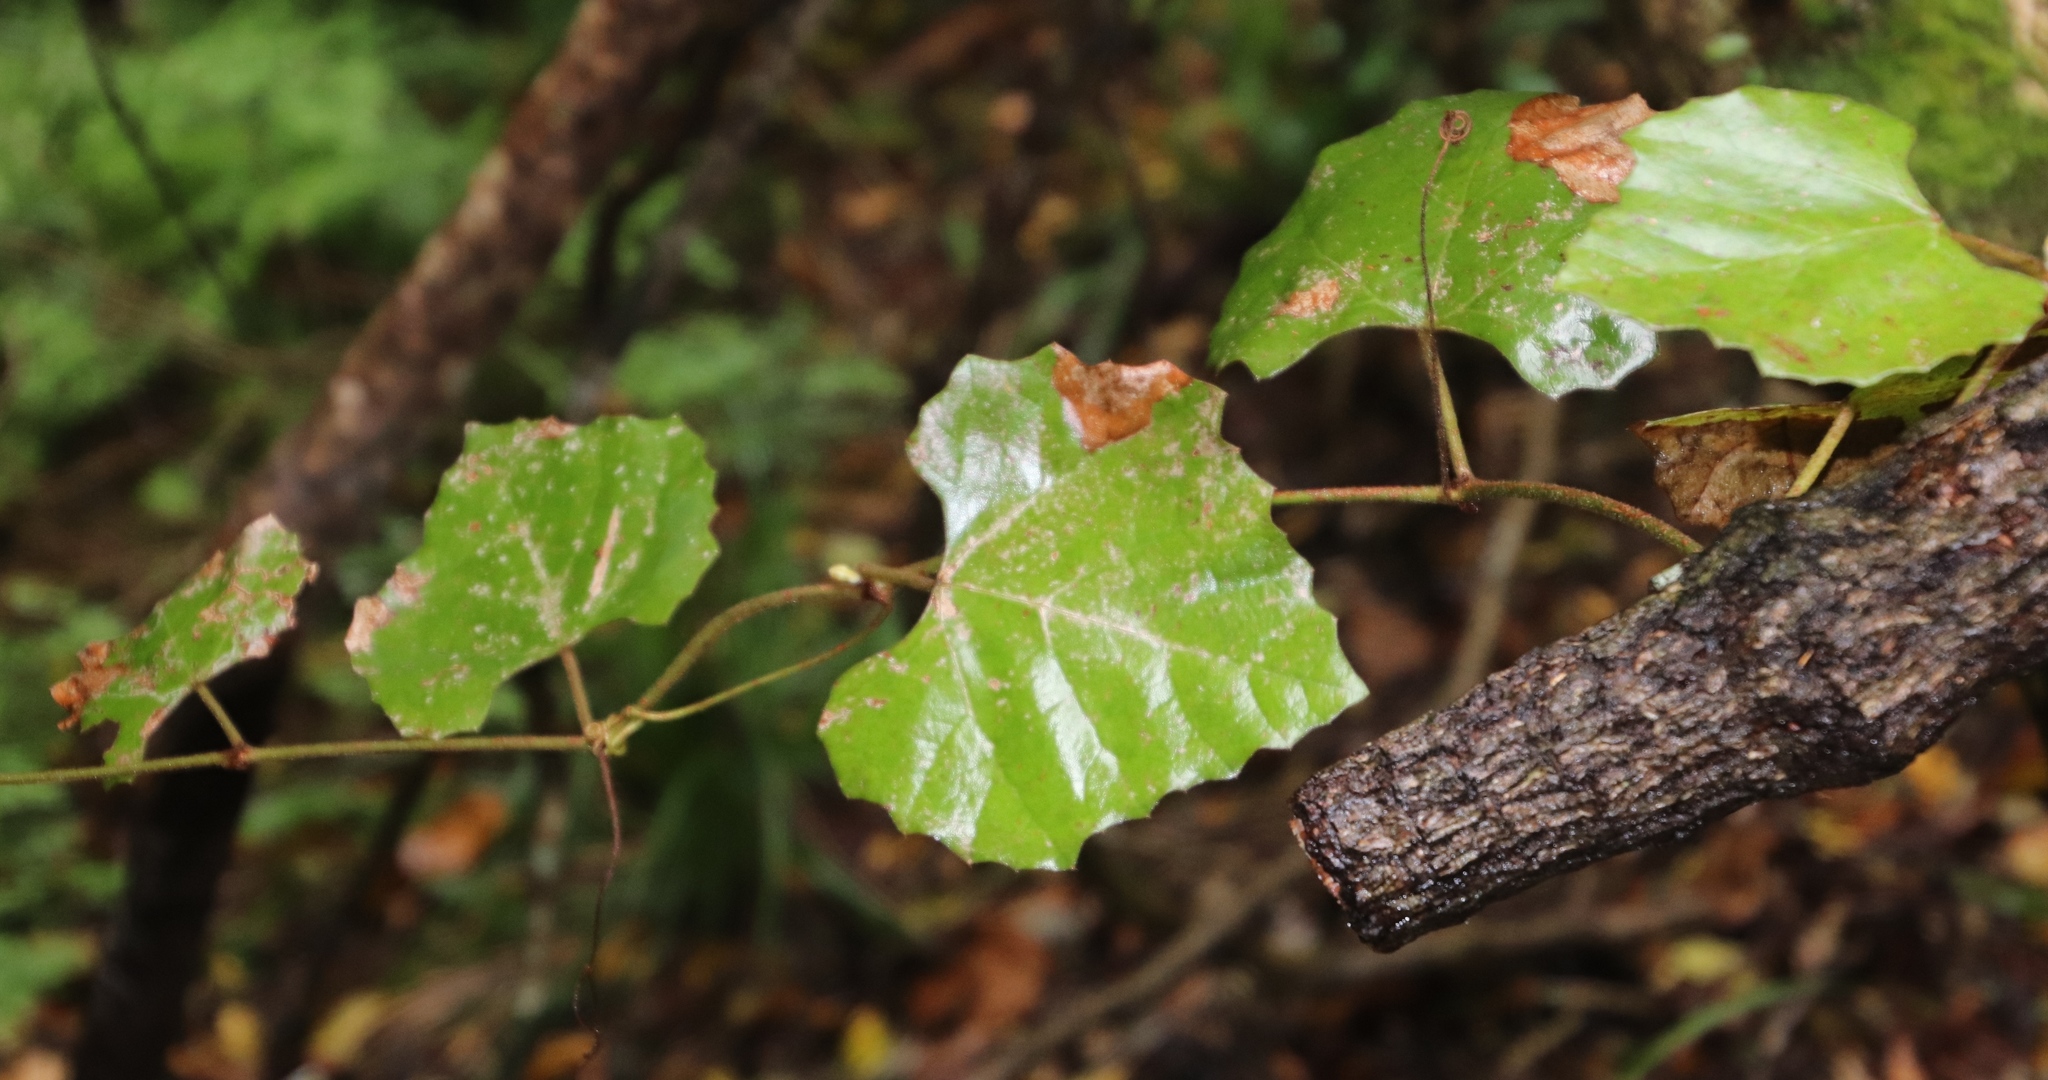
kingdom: Plantae
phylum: Tracheophyta
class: Magnoliopsida
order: Vitales
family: Vitaceae
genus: Rhoicissus
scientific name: Rhoicissus tomentosa
